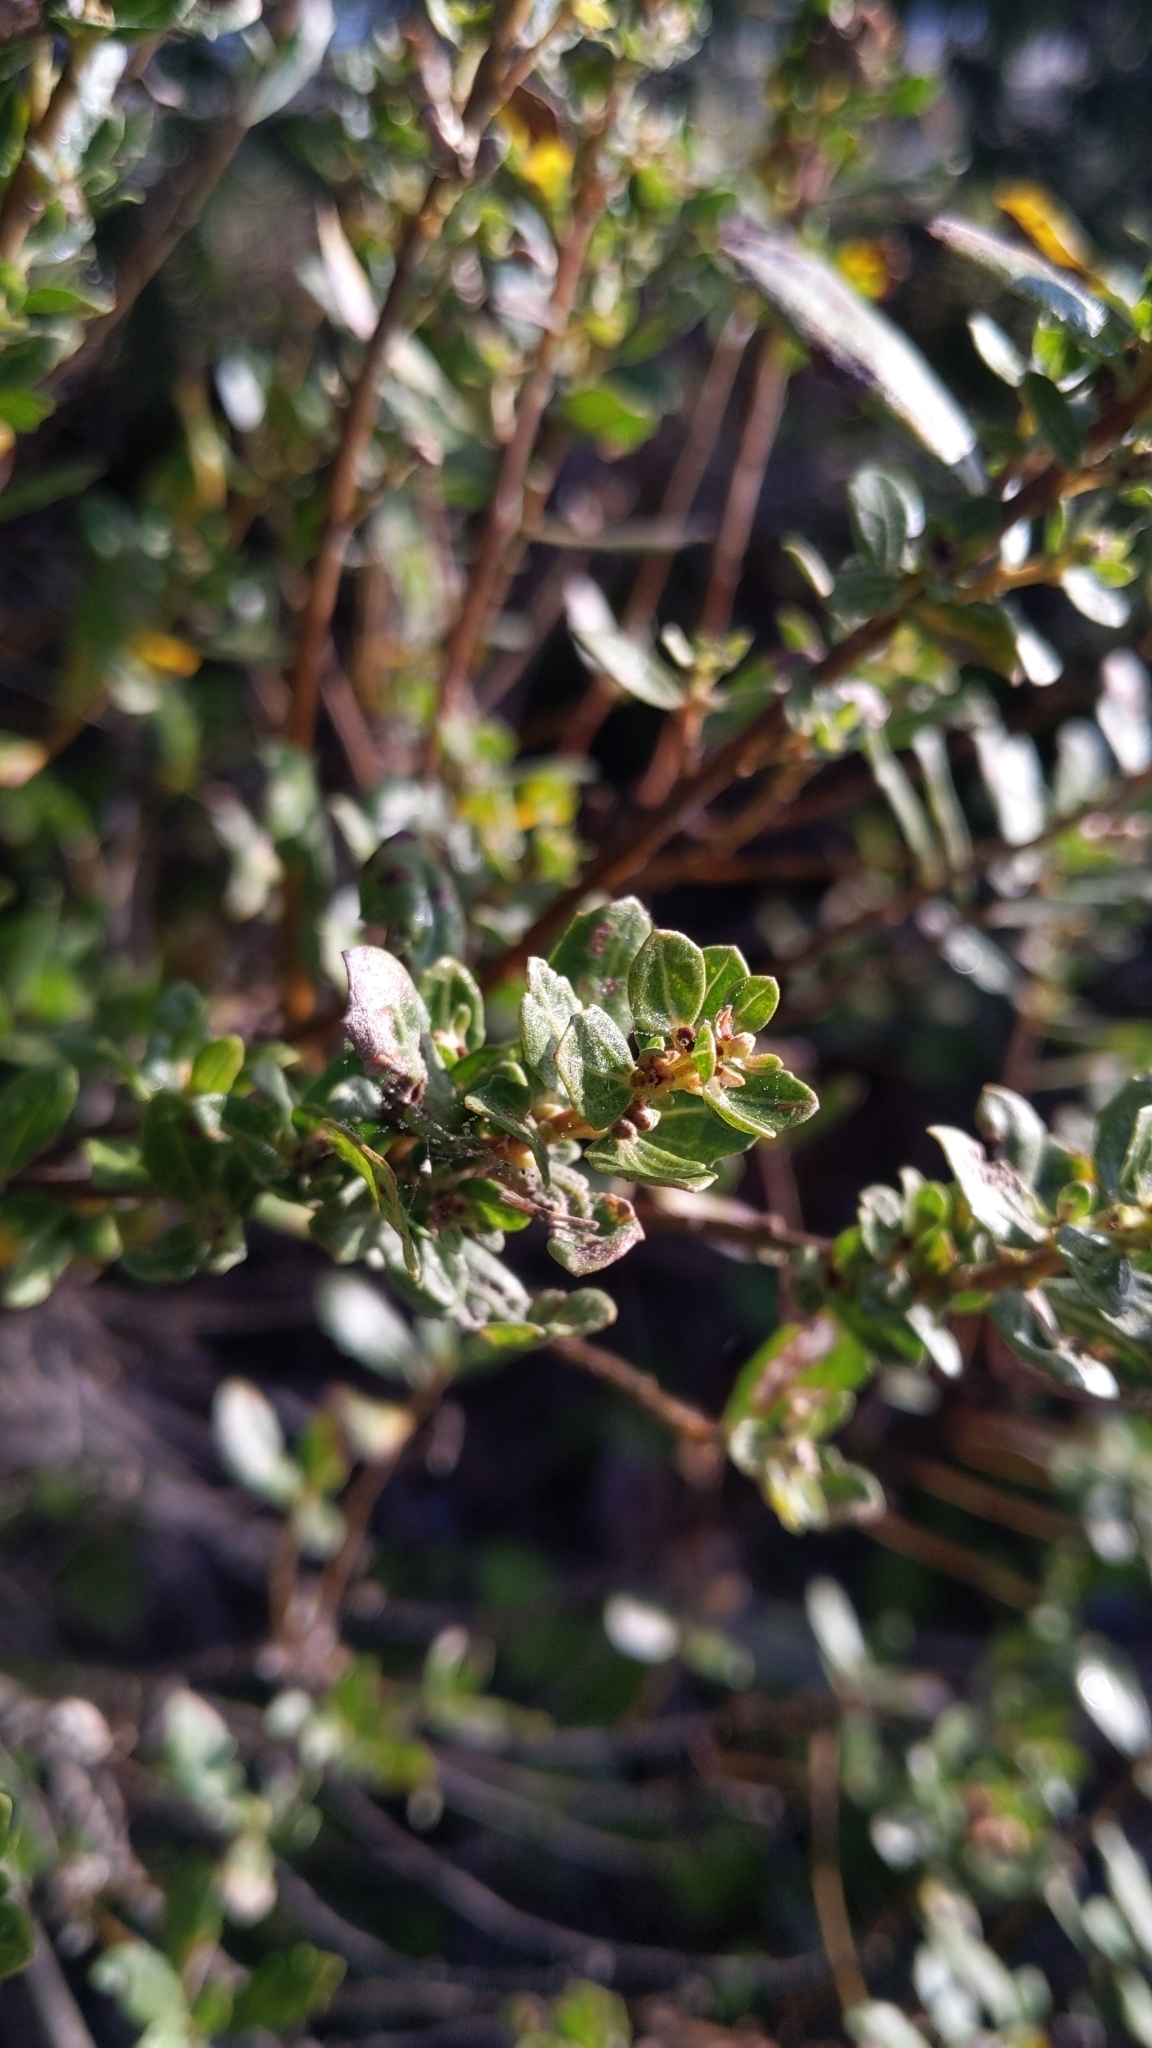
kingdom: Plantae
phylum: Tracheophyta
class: Magnoliopsida
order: Asterales
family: Asteraceae
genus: Baccharis
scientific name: Baccharis pilularis
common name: Coyotebrush
